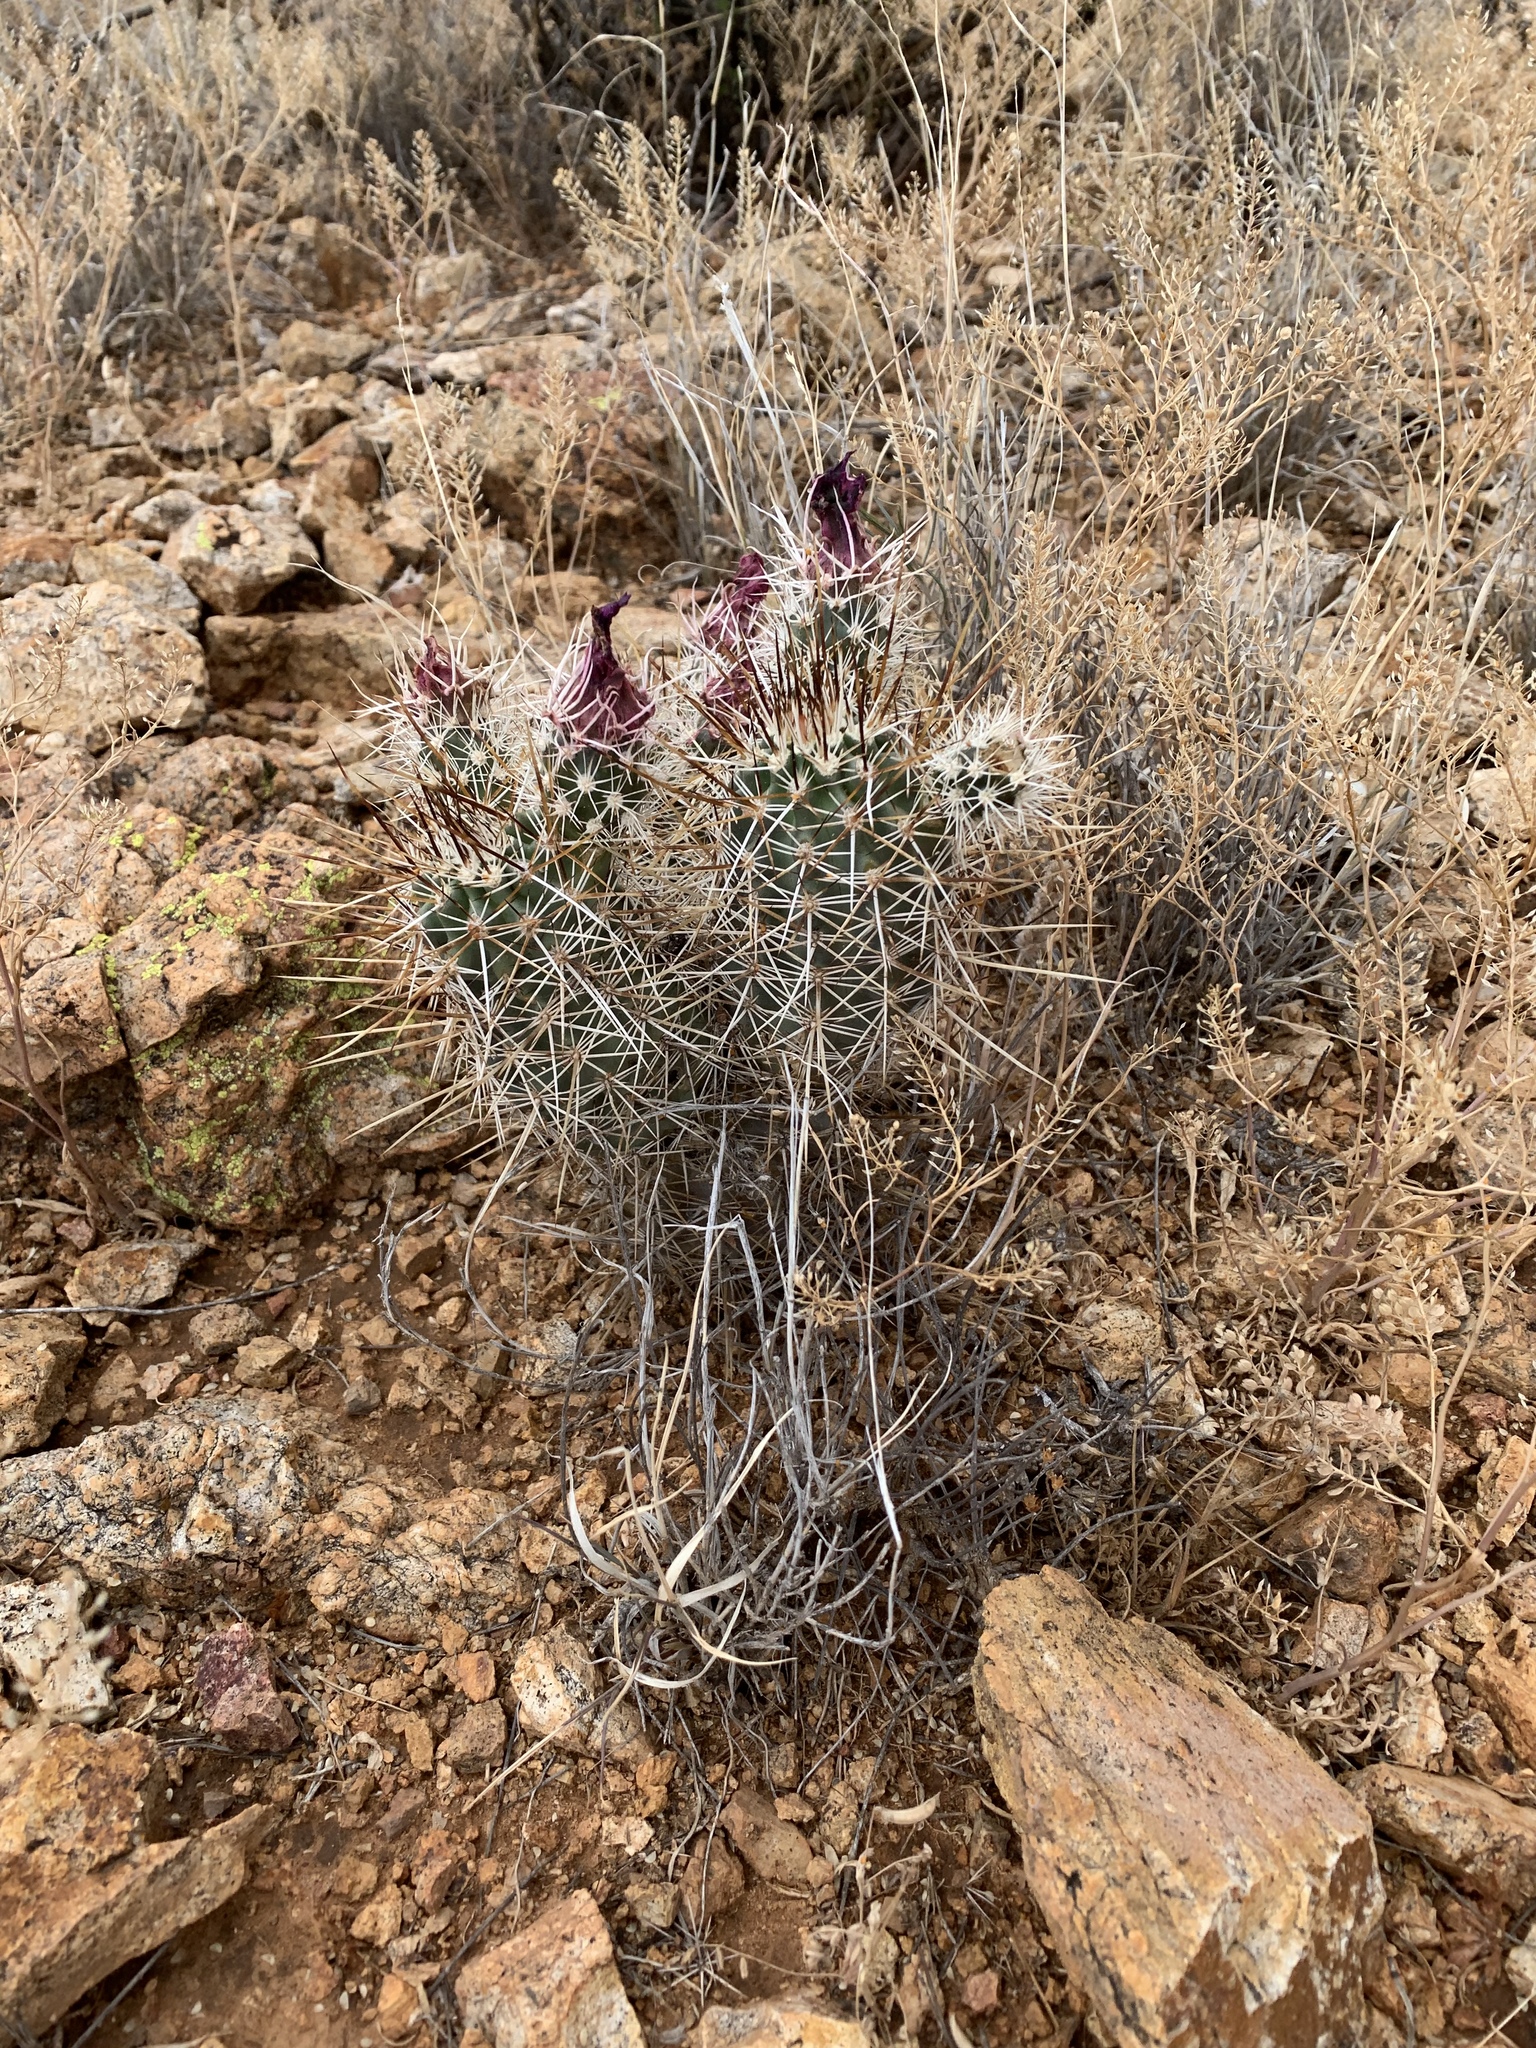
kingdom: Plantae
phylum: Tracheophyta
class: Magnoliopsida
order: Caryophyllales
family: Cactaceae
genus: Echinocereus
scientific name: Echinocereus fendleri
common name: Fendler's hedgehog cactus
